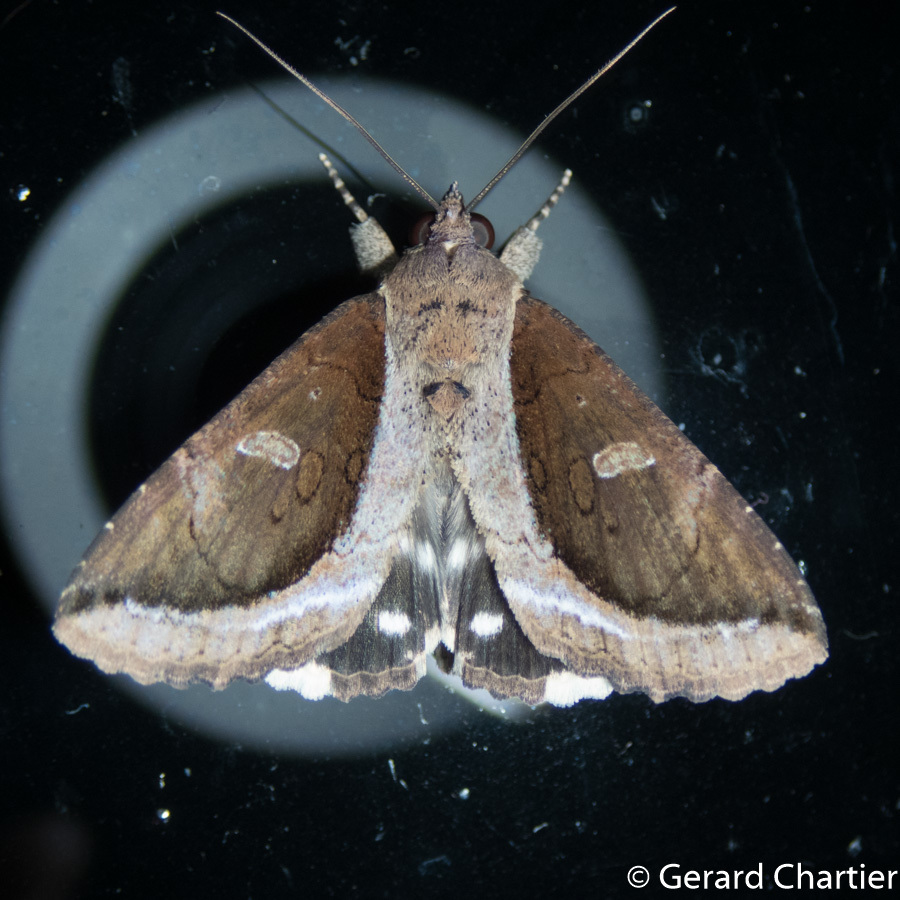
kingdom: Animalia
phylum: Arthropoda
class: Insecta
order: Lepidoptera
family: Erebidae
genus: Ercheia
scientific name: Ercheia cyllaria
